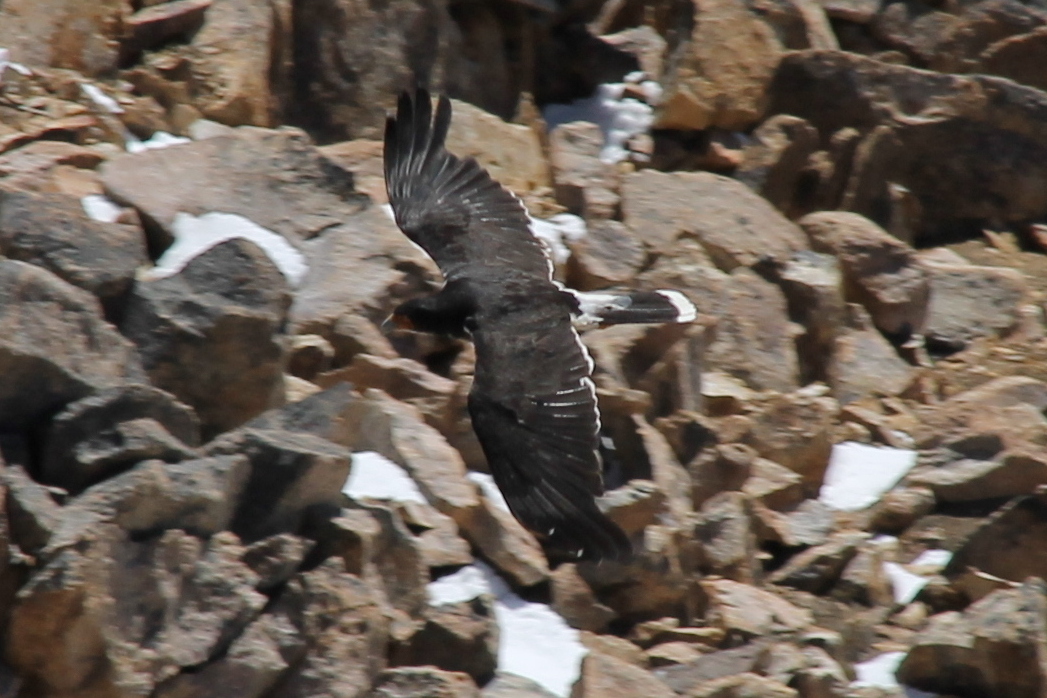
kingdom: Animalia
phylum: Chordata
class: Aves
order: Falconiformes
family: Falconidae
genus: Daptrius
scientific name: Daptrius
